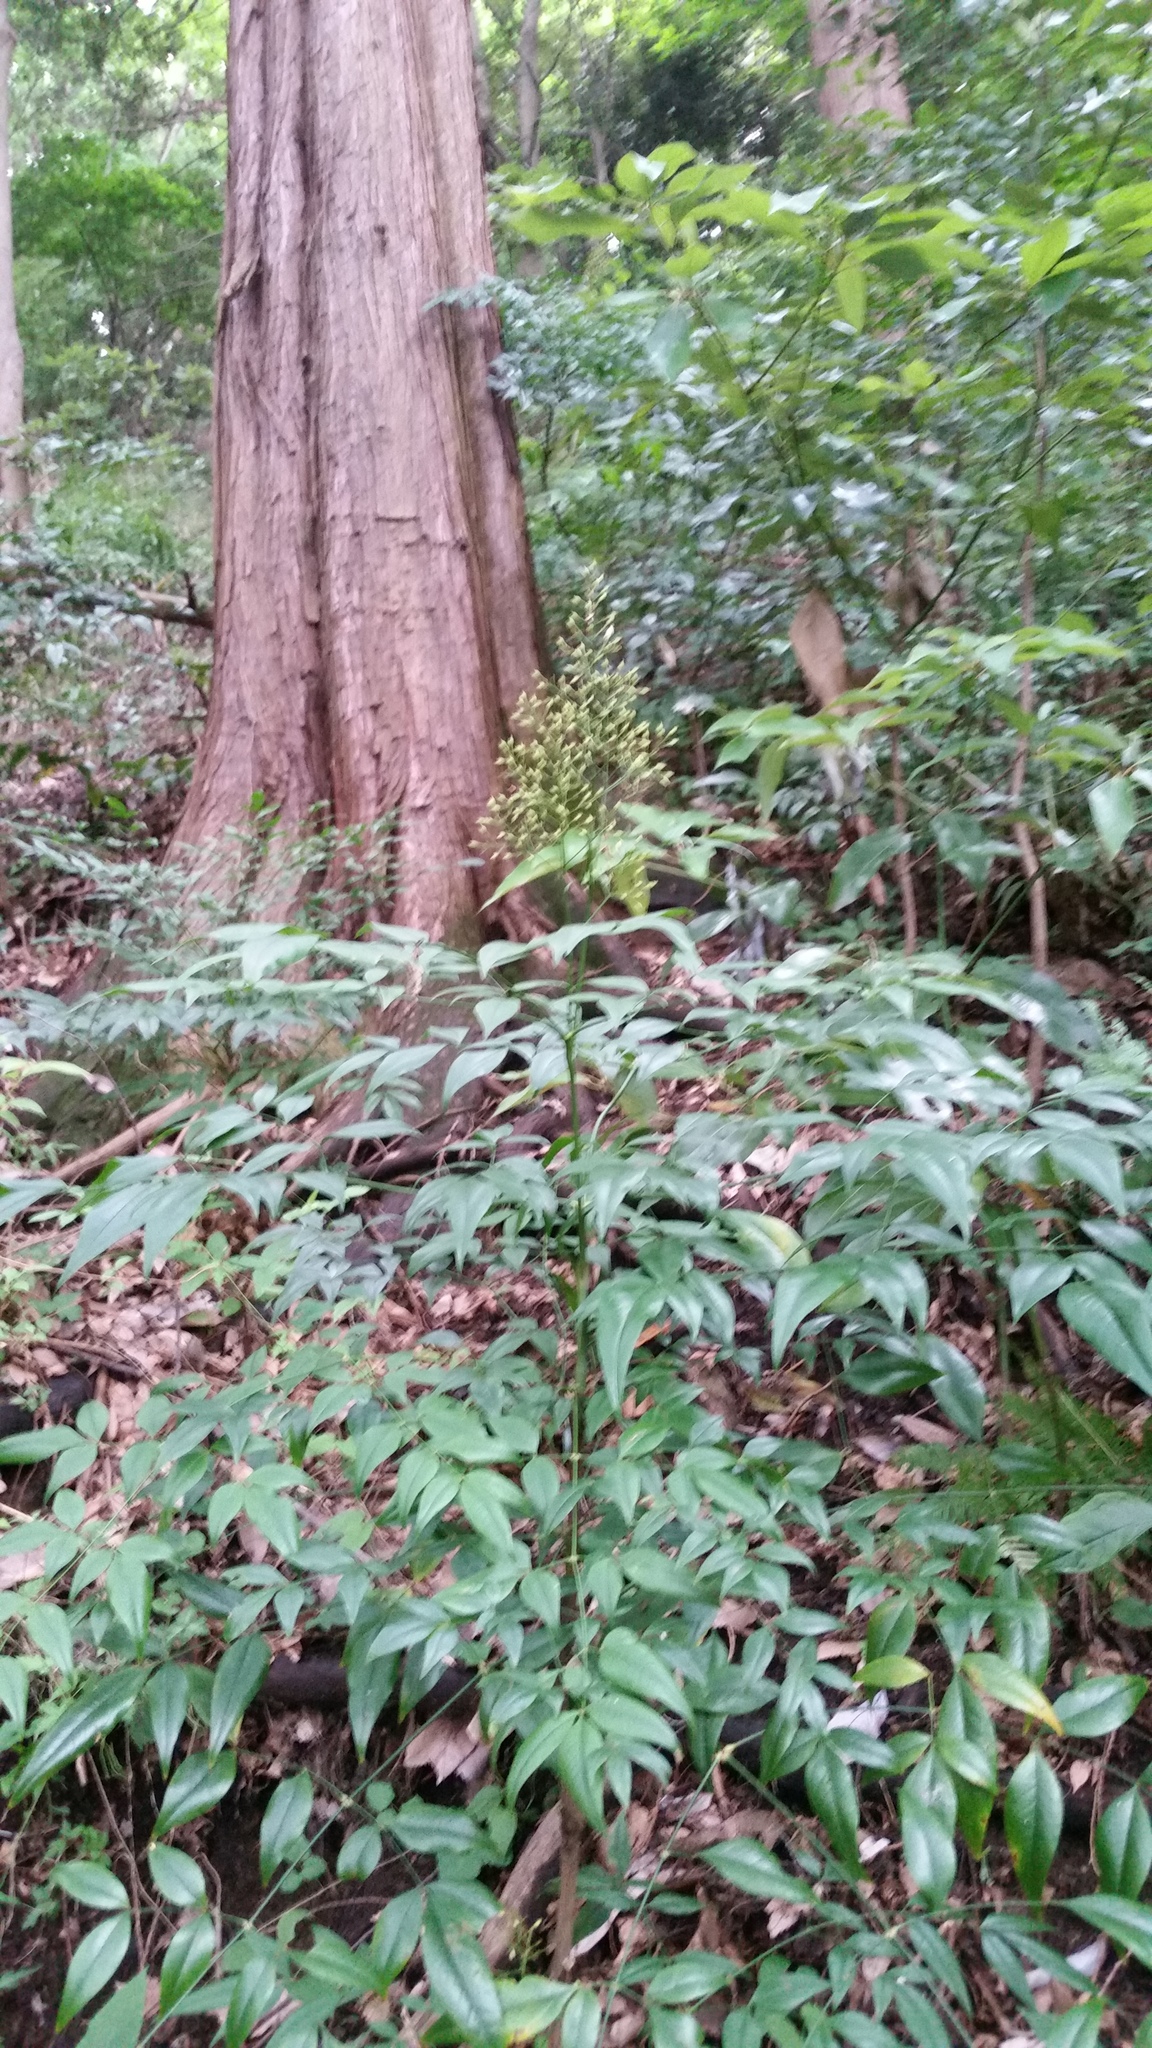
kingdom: Plantae
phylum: Tracheophyta
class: Magnoliopsida
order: Ranunculales
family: Berberidaceae
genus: Nandina
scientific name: Nandina domestica
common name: Sacred bamboo
